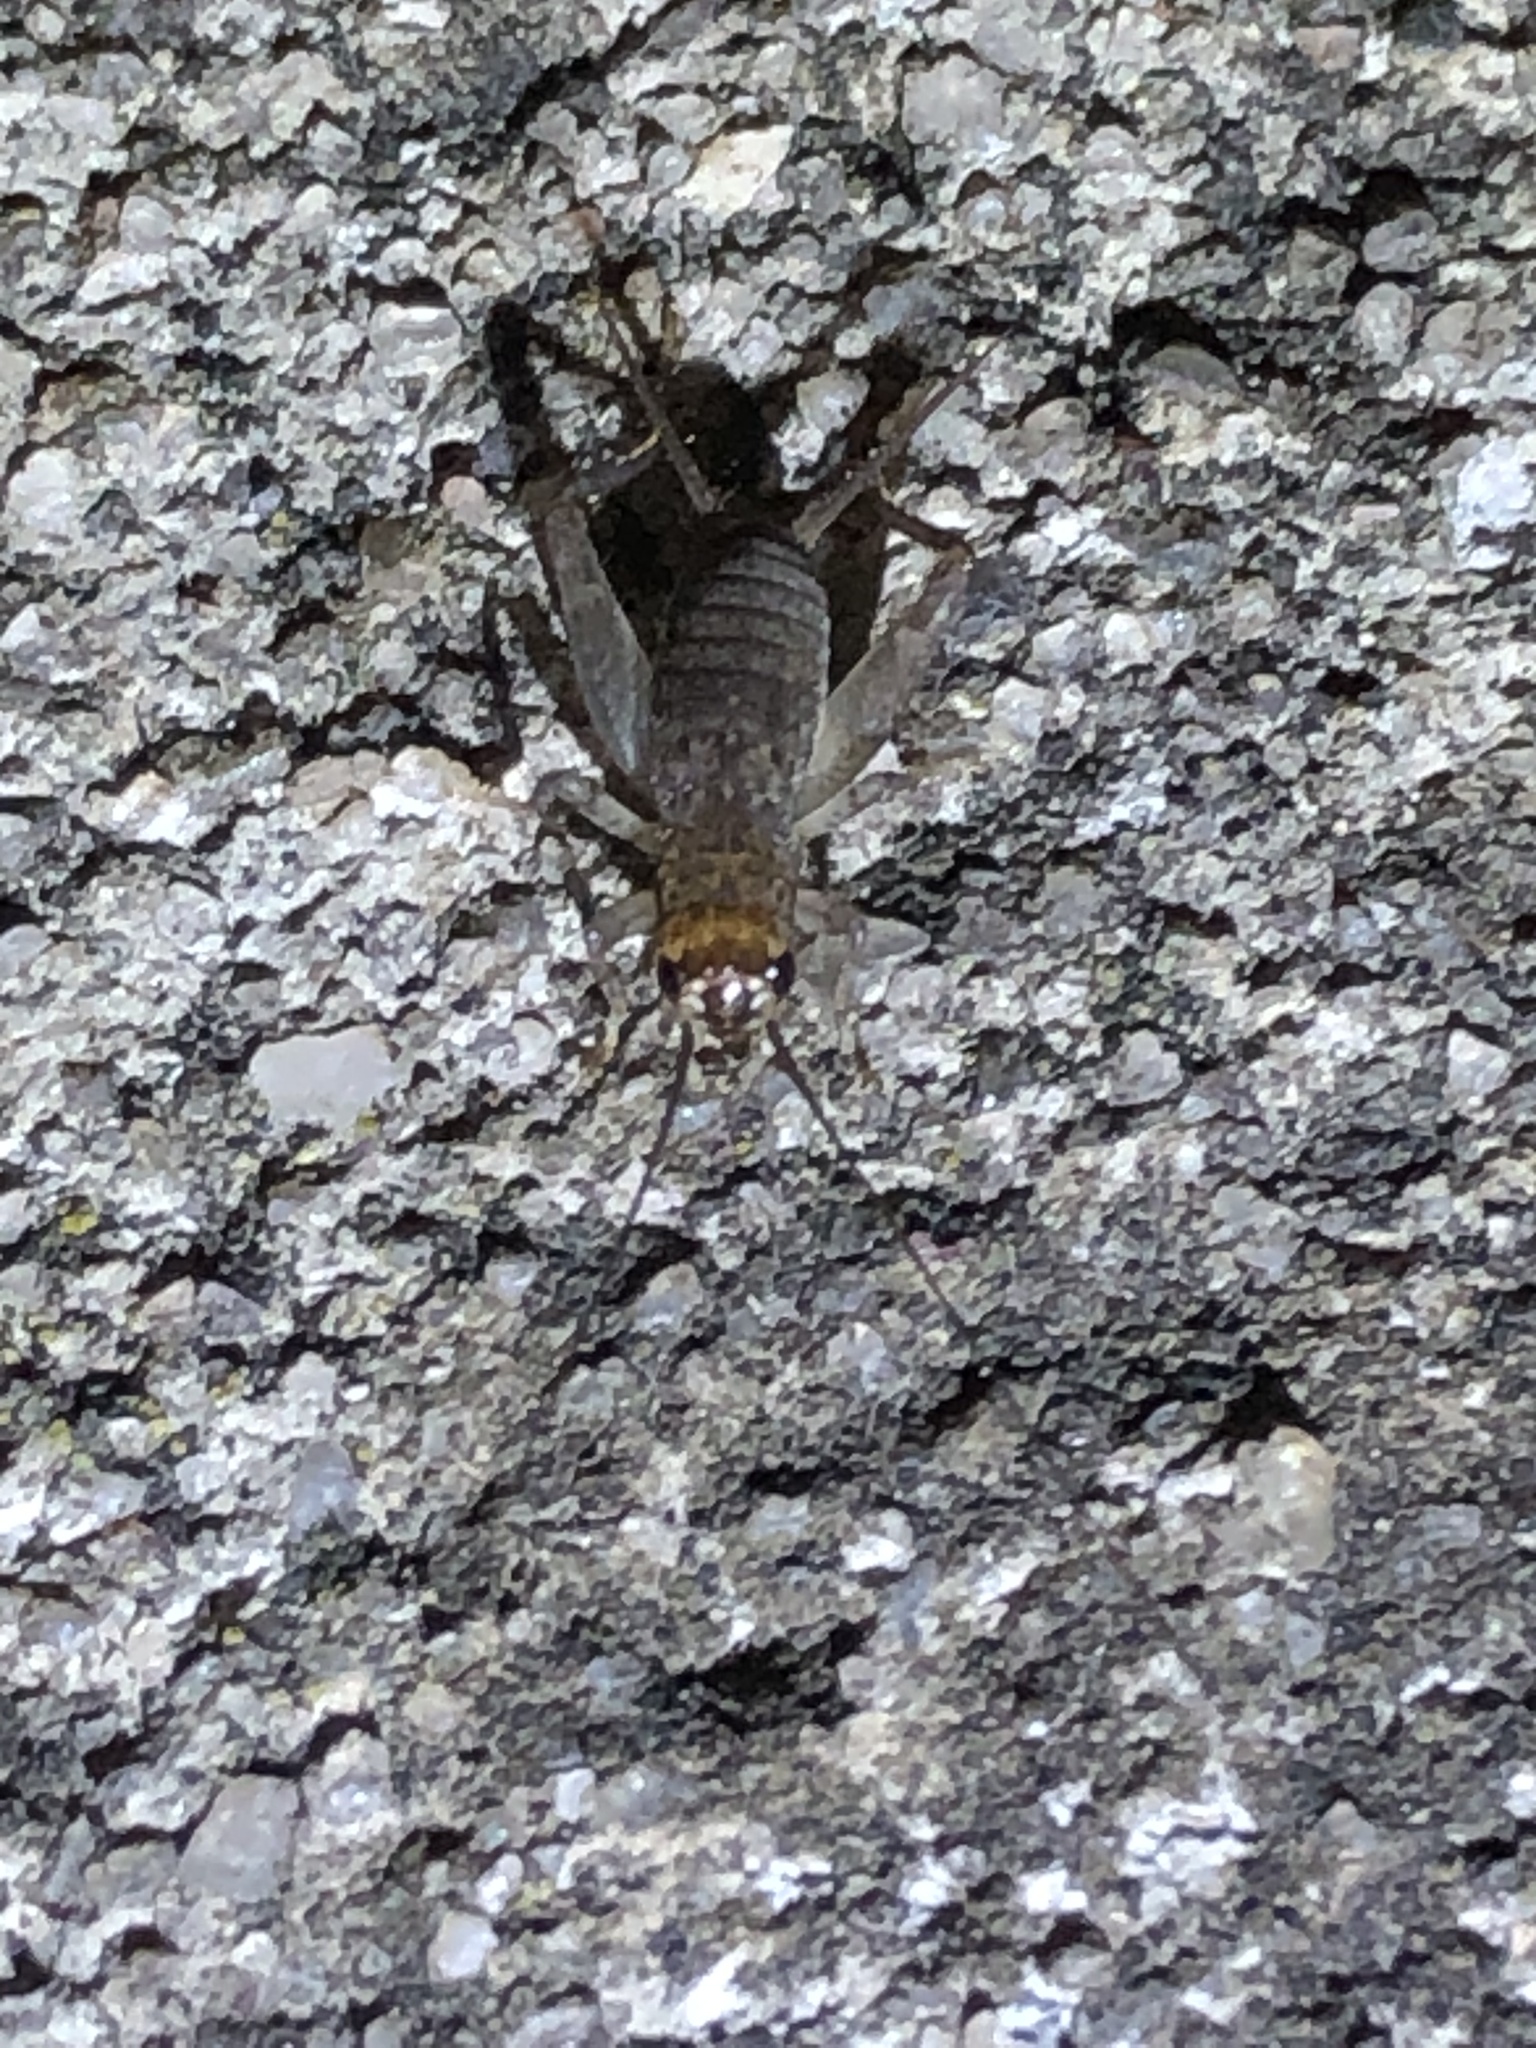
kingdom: Animalia
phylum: Arthropoda
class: Insecta
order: Orthoptera
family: Gryllidae
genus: Velarifictorus
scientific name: Velarifictorus micado
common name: Japanese burrowing cricket
